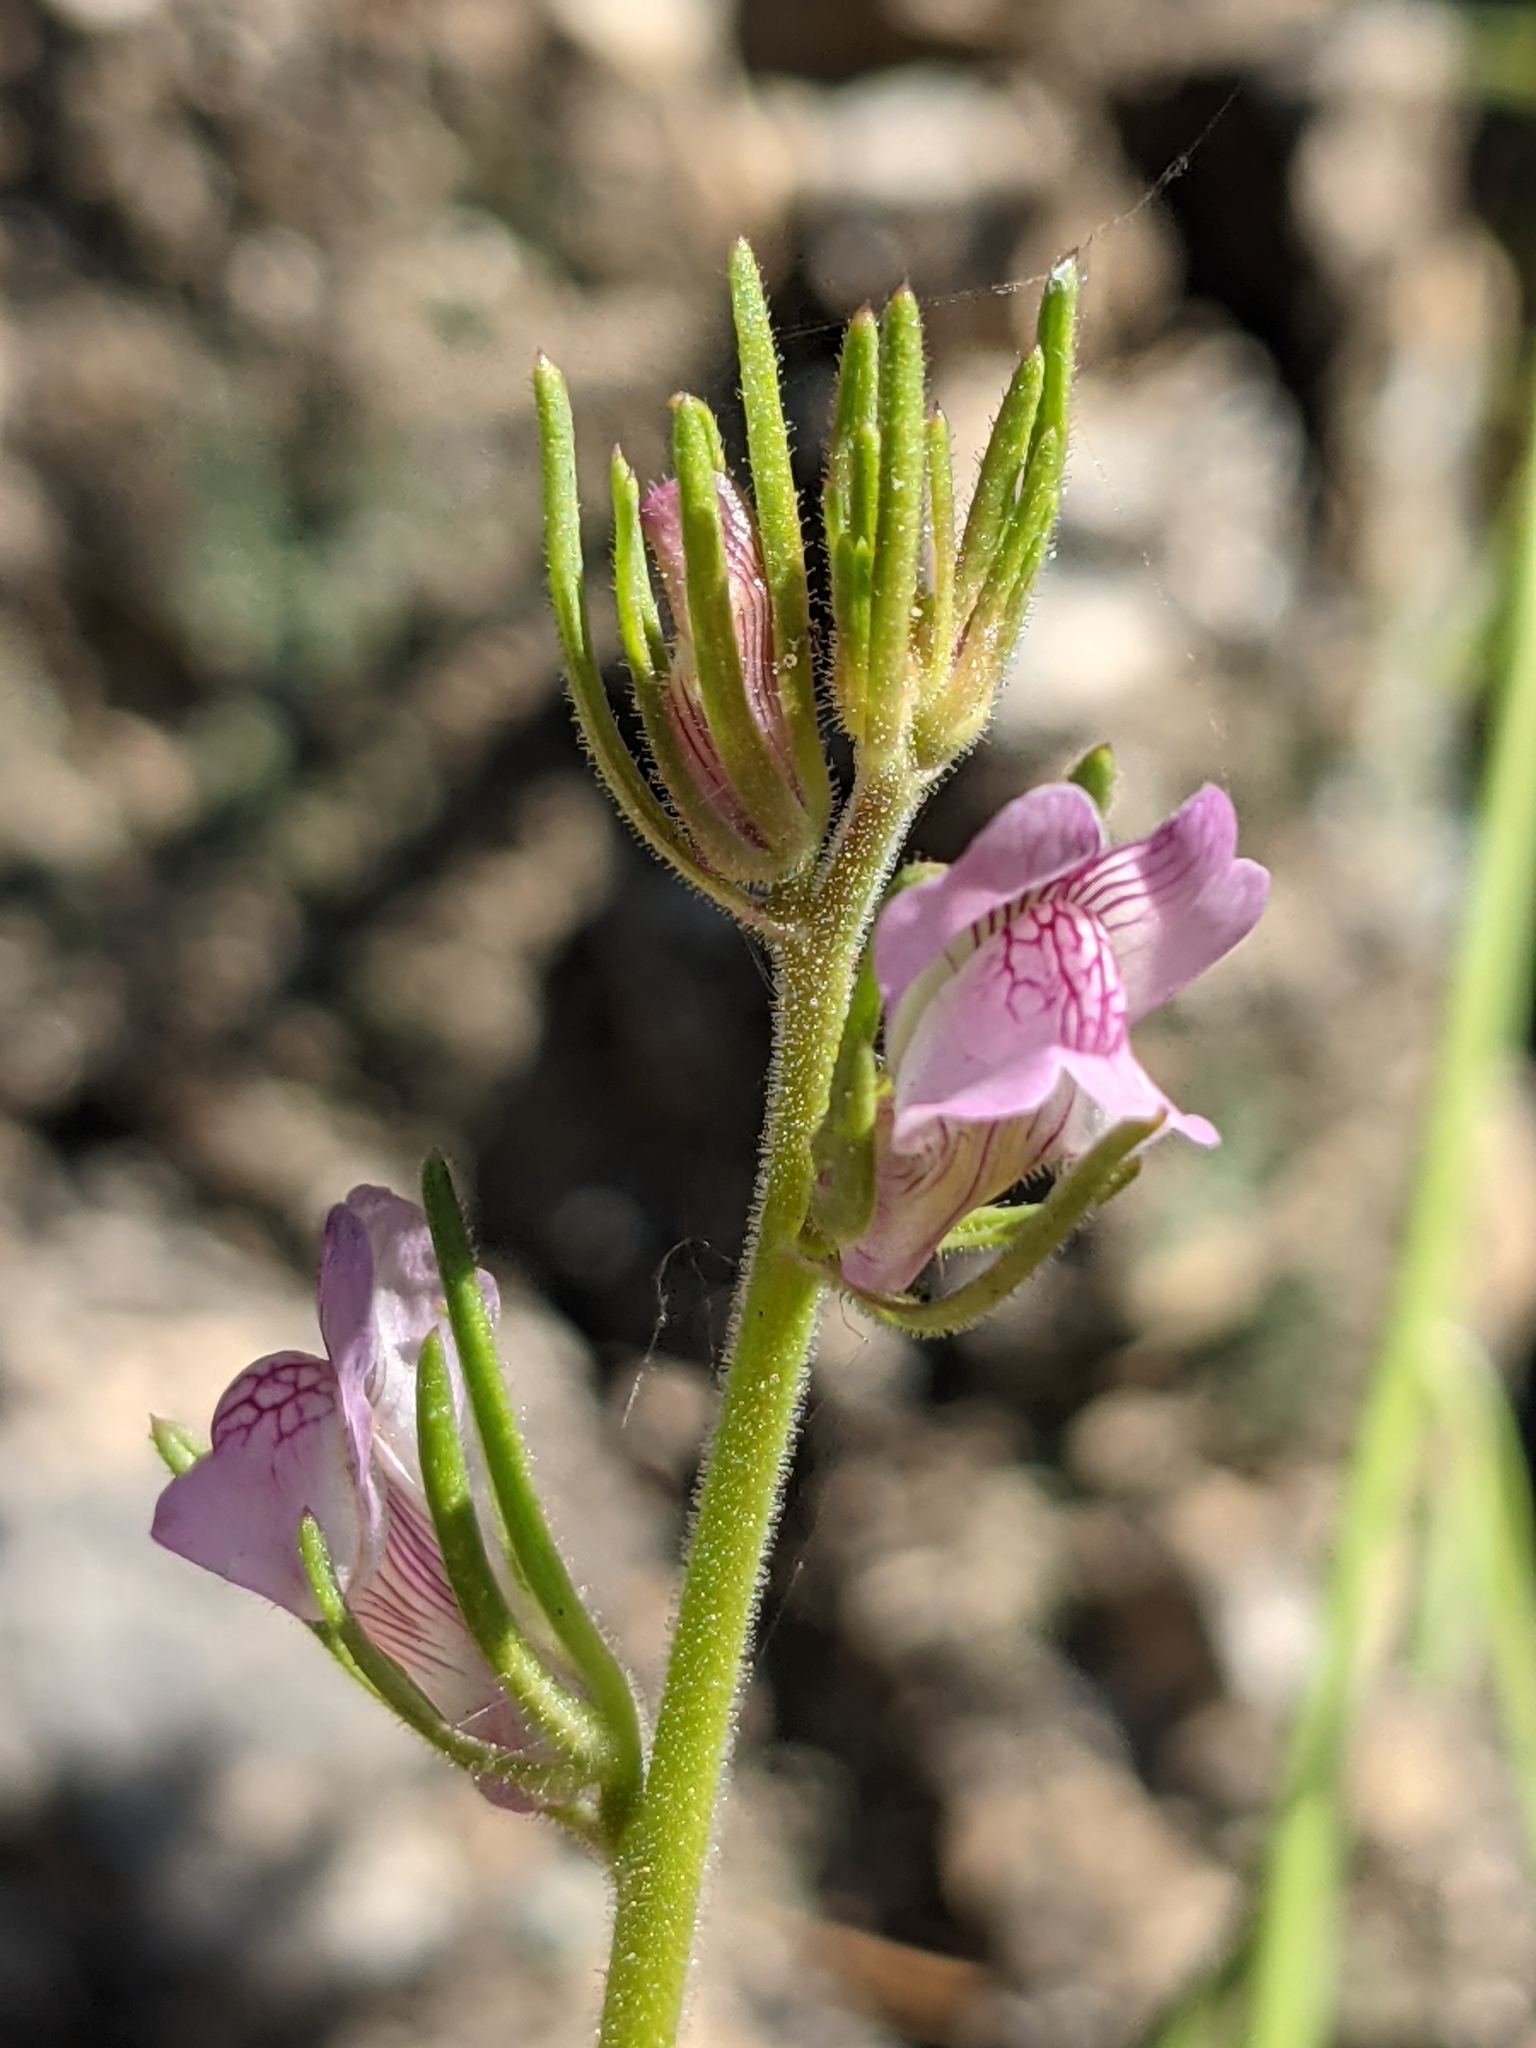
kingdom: Plantae
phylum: Tracheophyta
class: Magnoliopsida
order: Lamiales
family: Plantaginaceae
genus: Misopates
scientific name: Misopates orontium
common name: Weasel's-snout
